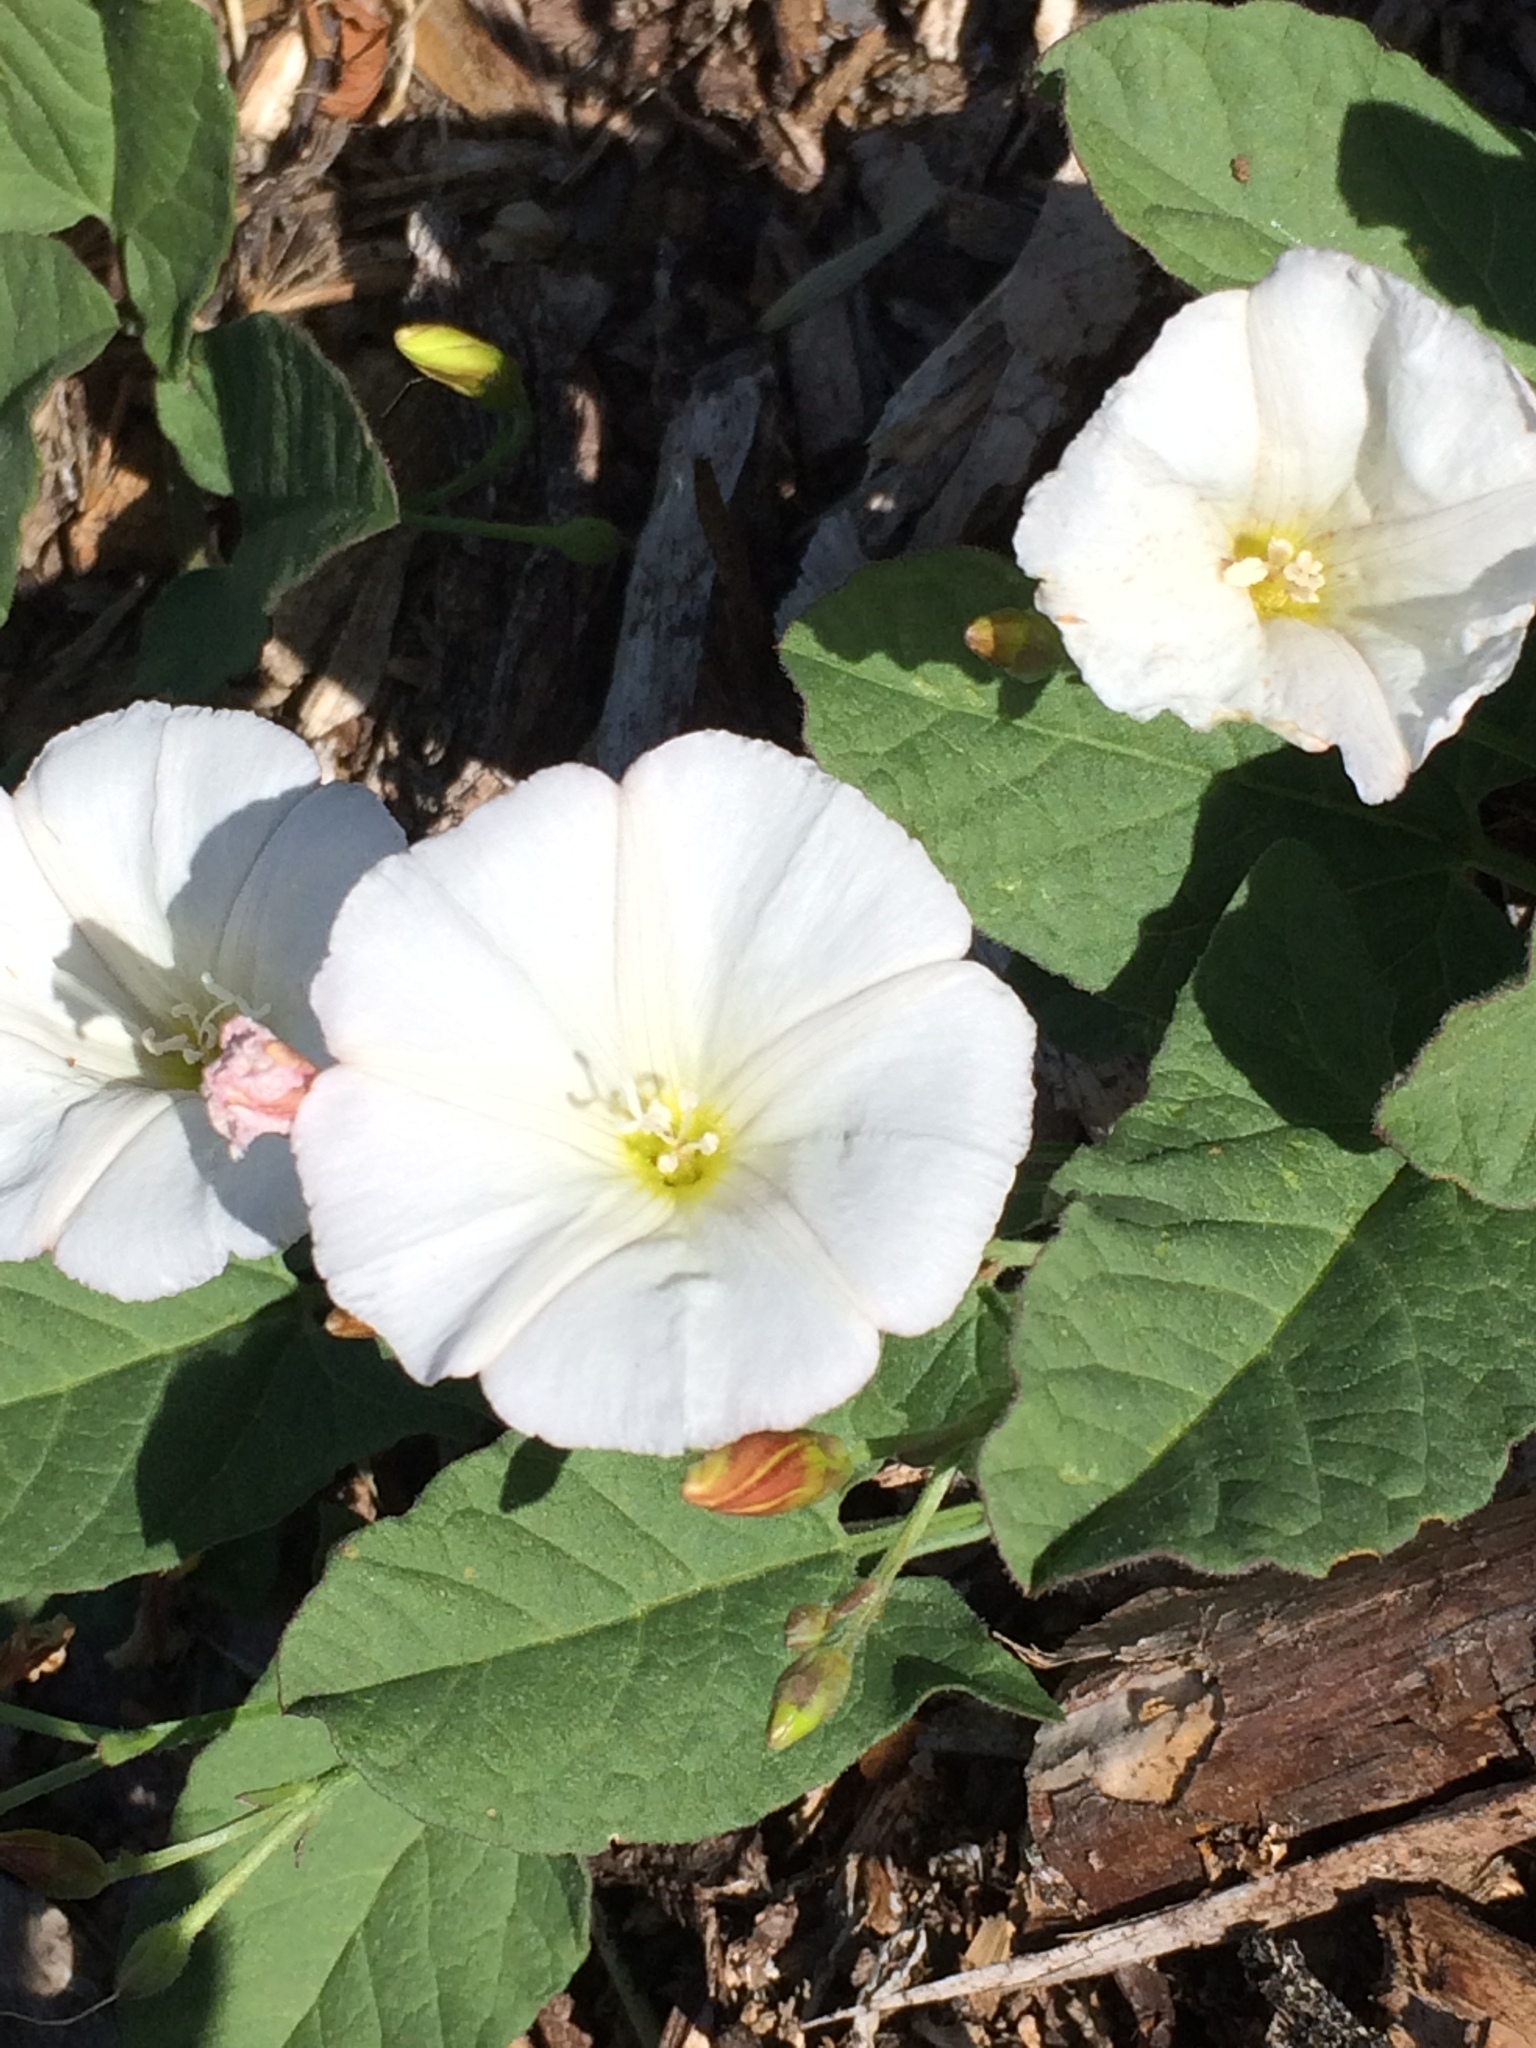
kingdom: Plantae
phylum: Tracheophyta
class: Magnoliopsida
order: Solanales
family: Convolvulaceae
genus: Convolvulus
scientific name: Convolvulus arvensis
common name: Field bindweed
